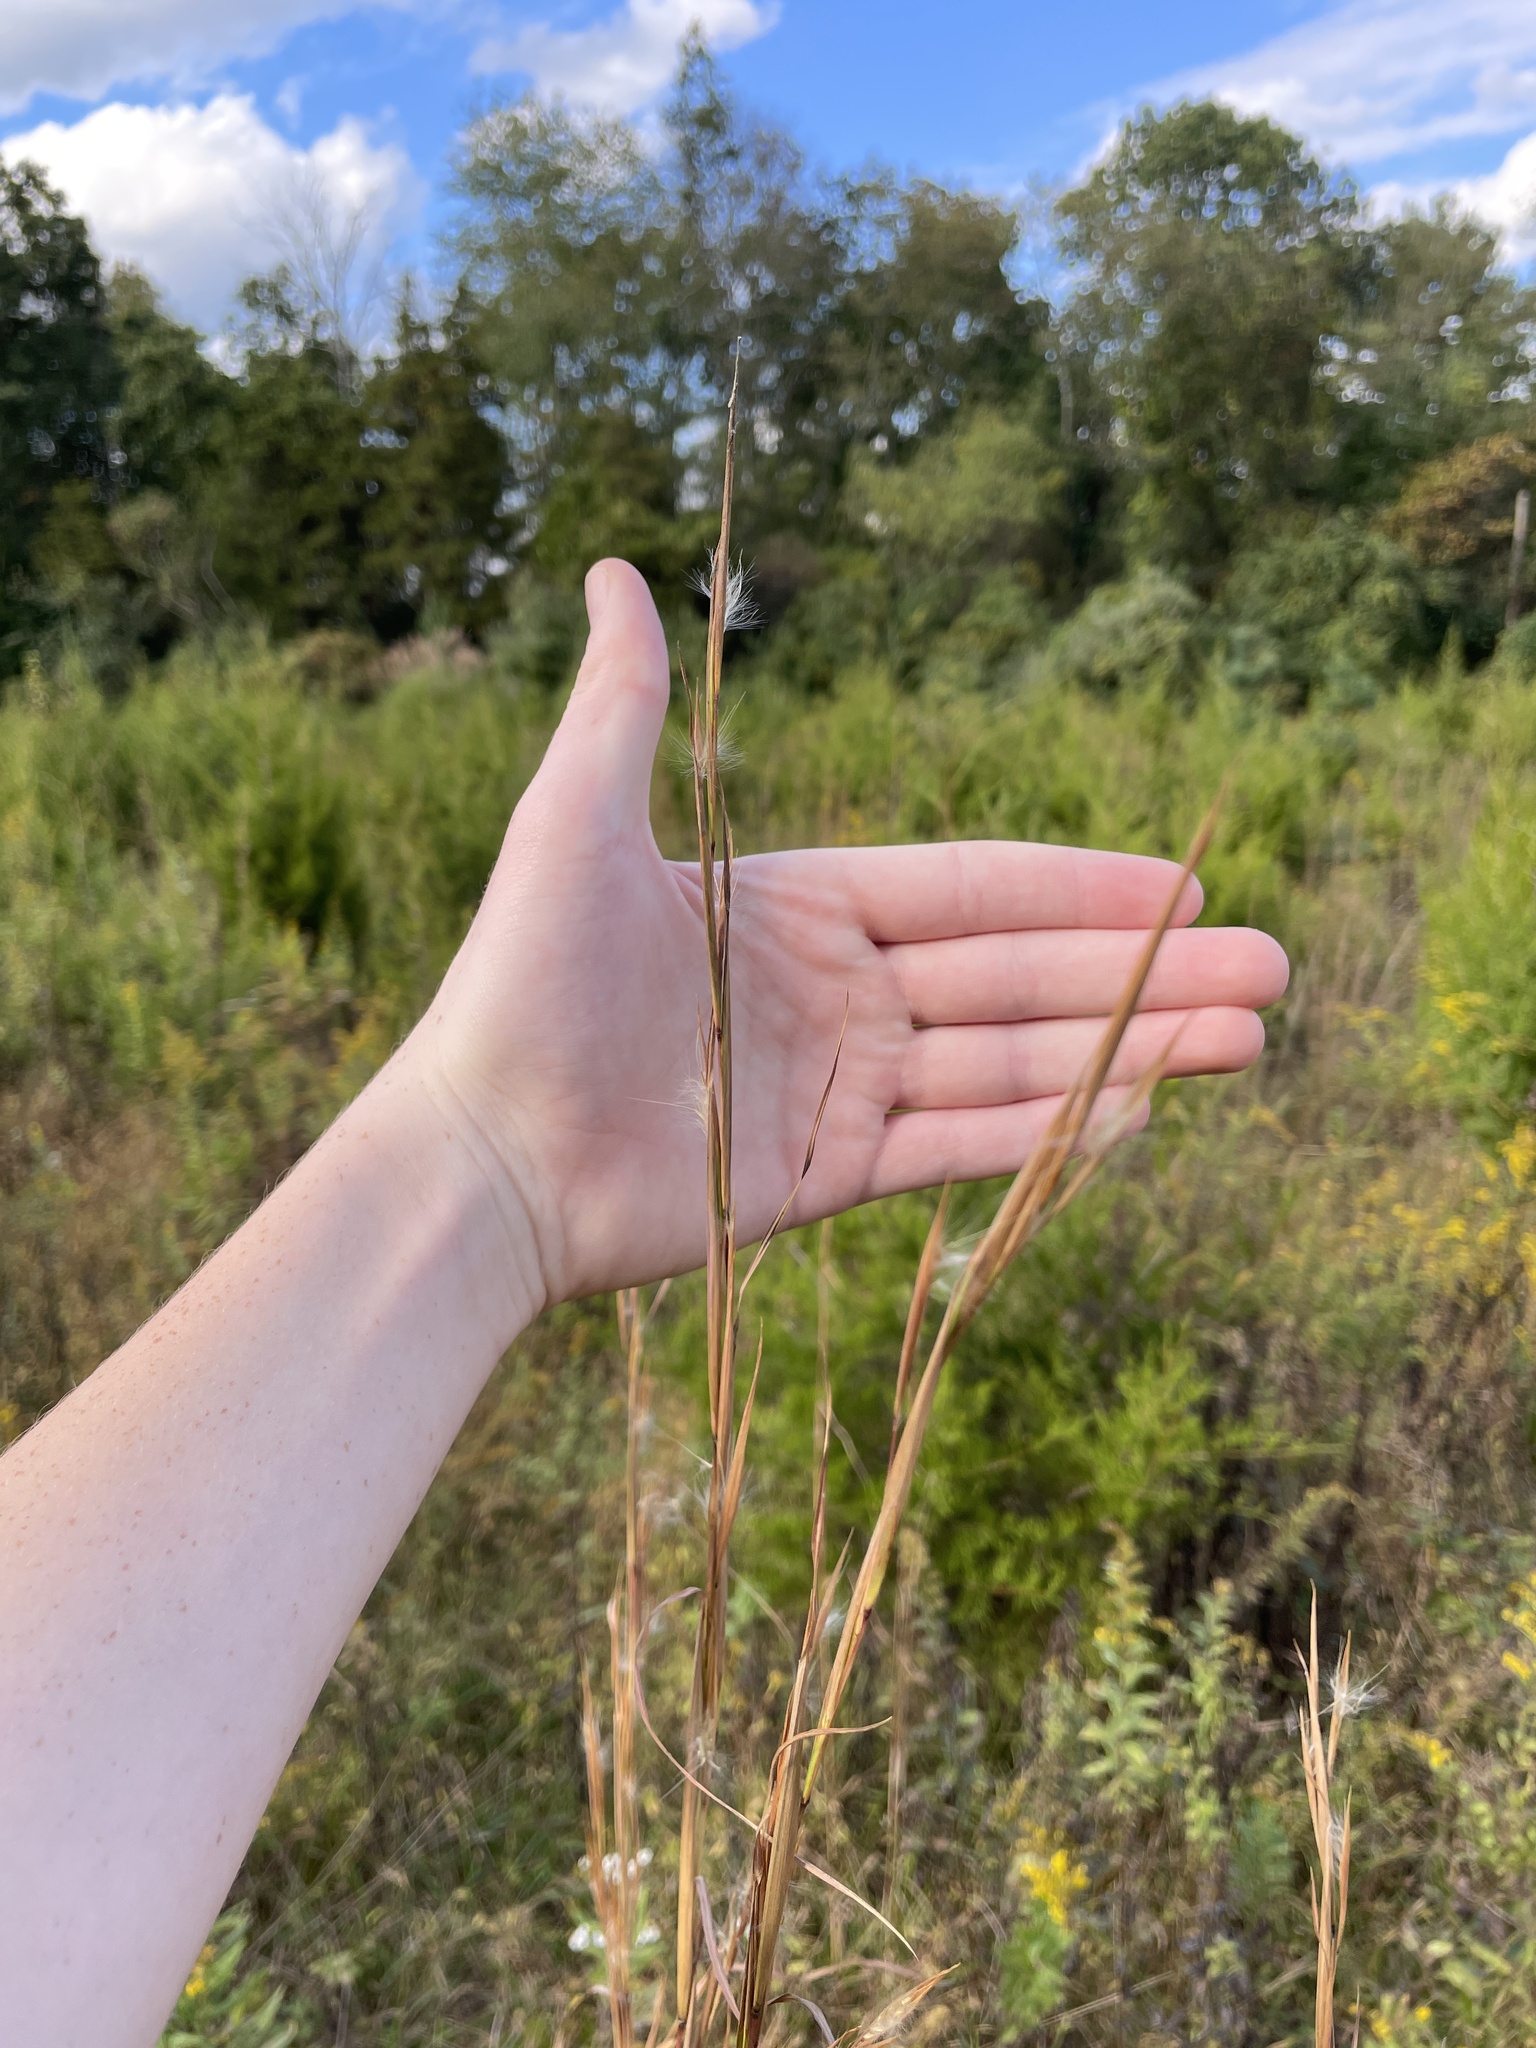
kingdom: Plantae
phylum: Tracheophyta
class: Liliopsida
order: Poales
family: Poaceae
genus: Andropogon
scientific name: Andropogon virginicus
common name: Broomsedge bluestem
